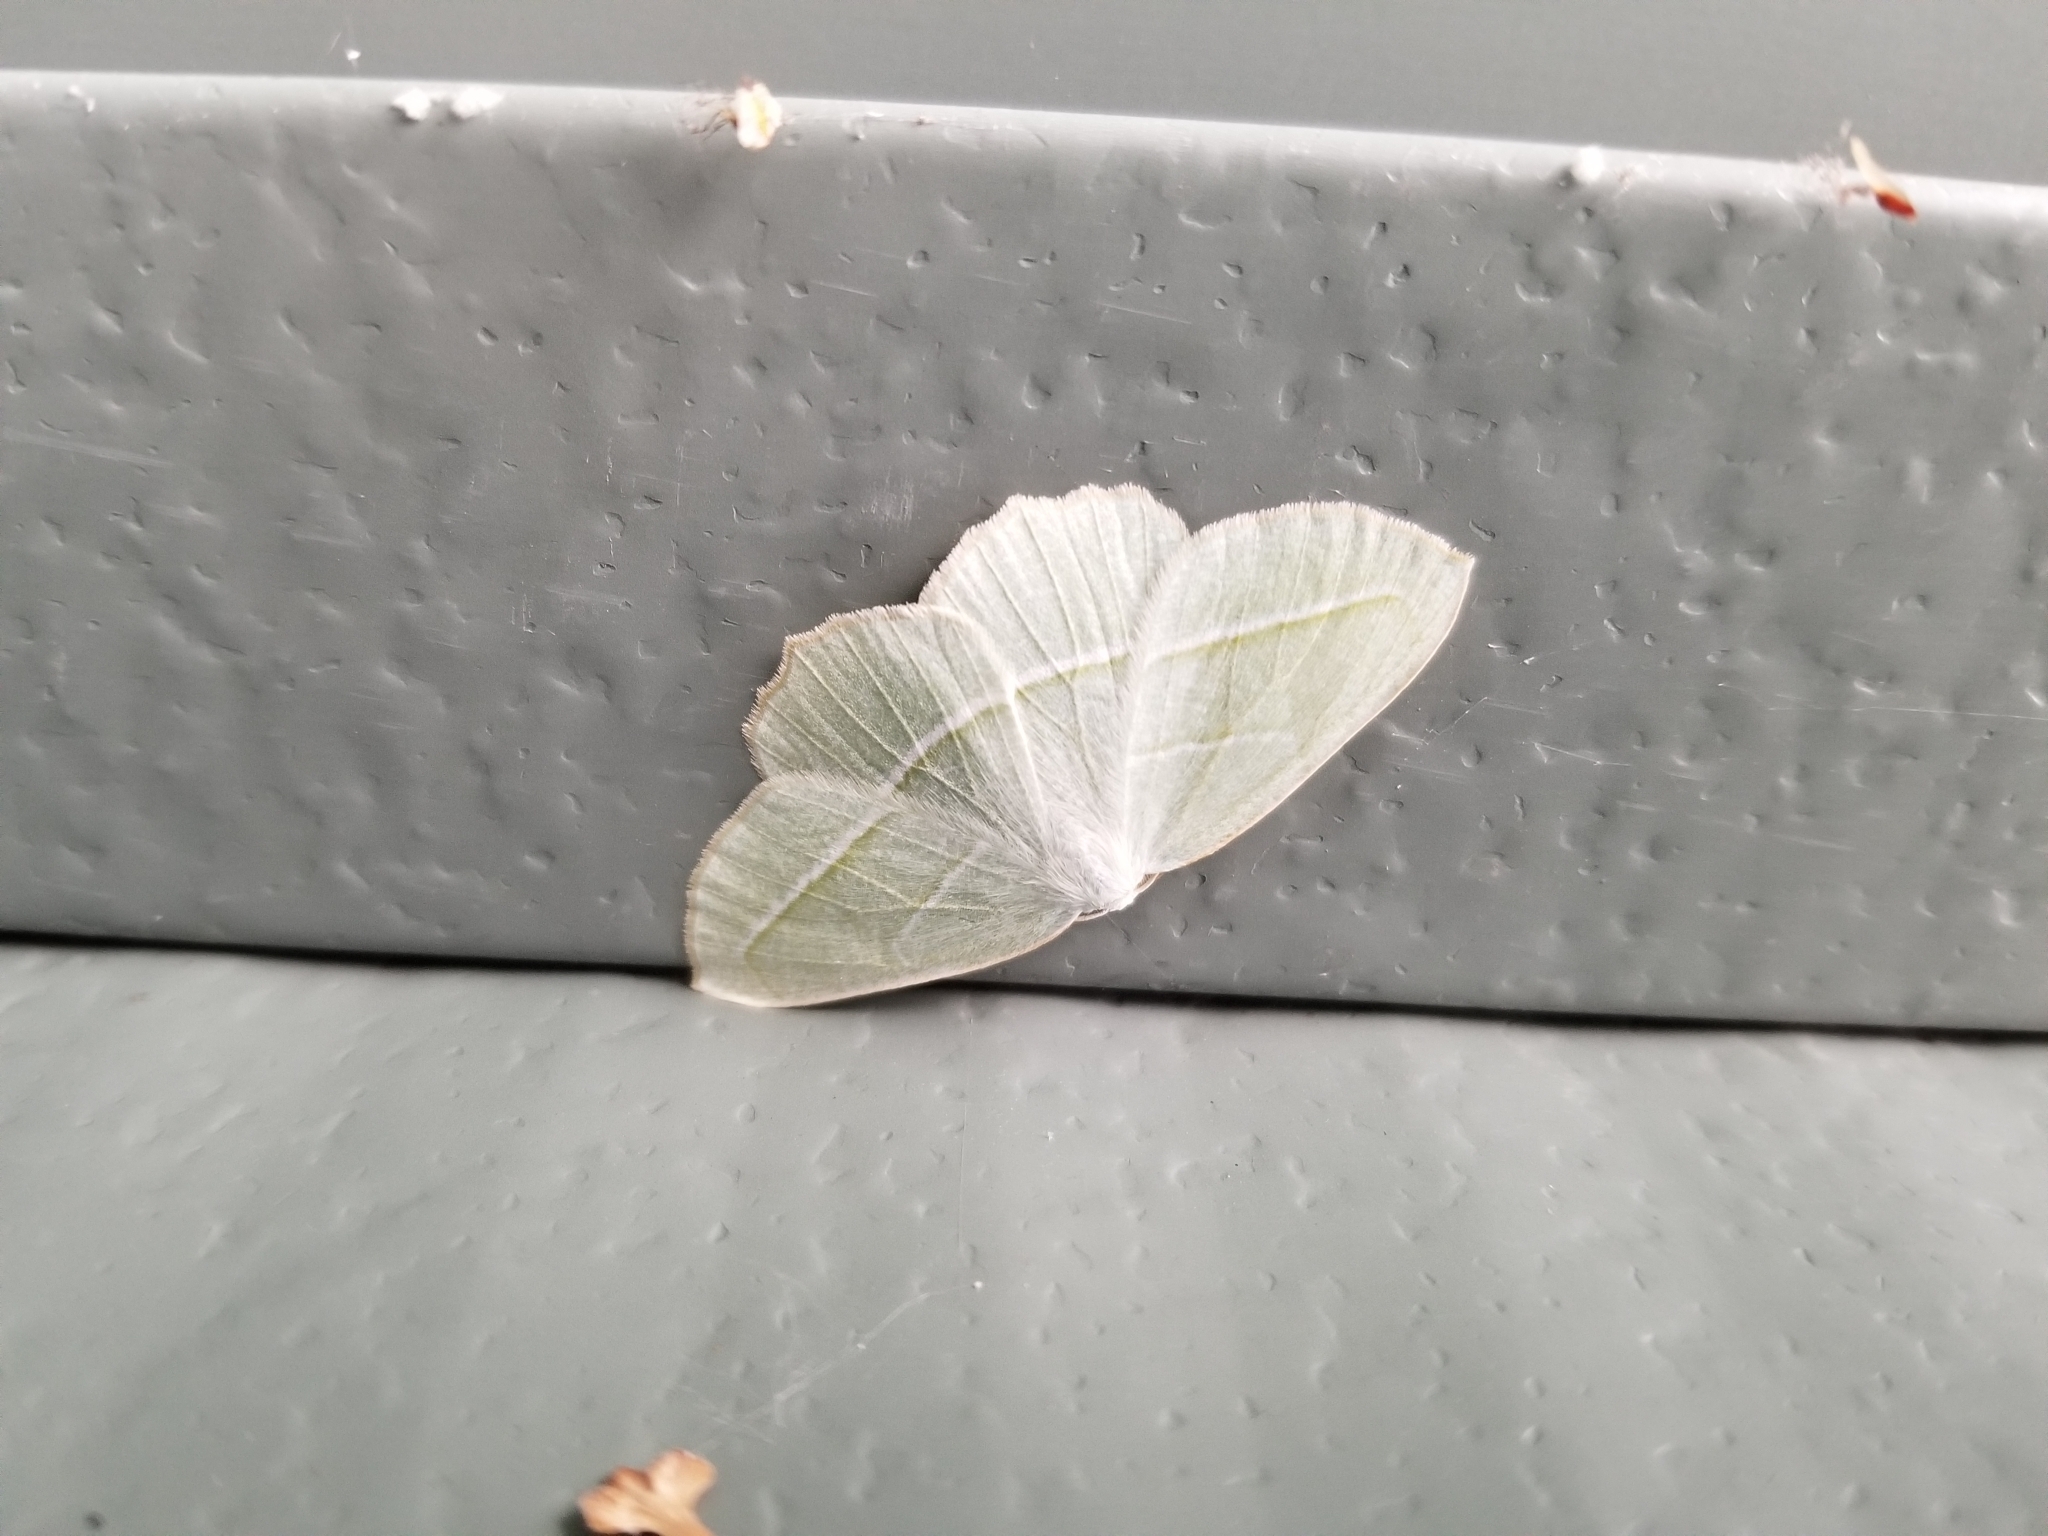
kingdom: Animalia
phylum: Arthropoda
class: Insecta
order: Lepidoptera
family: Geometridae
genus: Campaea
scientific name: Campaea perlata
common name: Fringed looper
